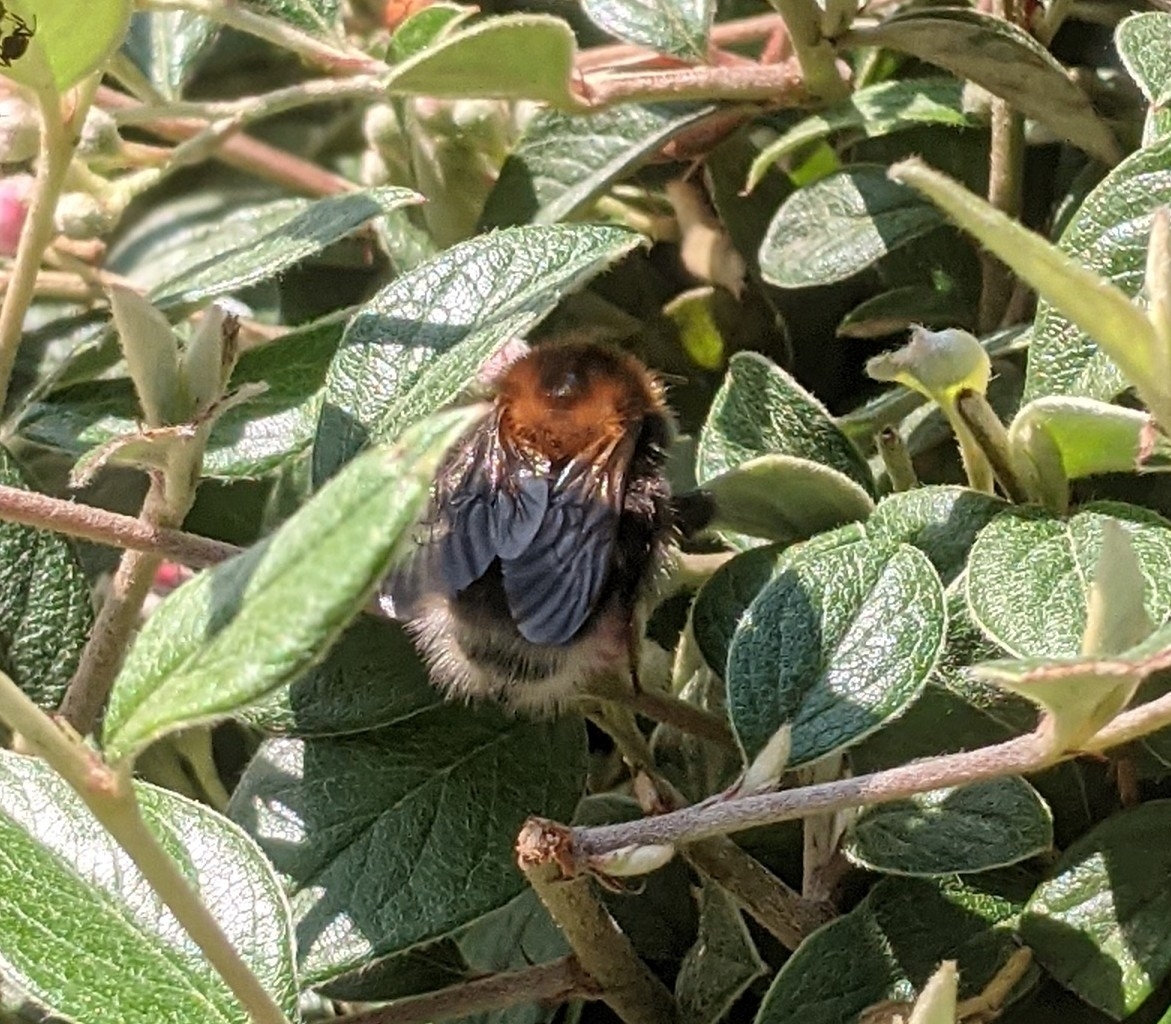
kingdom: Animalia
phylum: Arthropoda
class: Insecta
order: Hymenoptera
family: Apidae
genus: Bombus
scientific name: Bombus hypnorum
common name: New garden bumblebee
